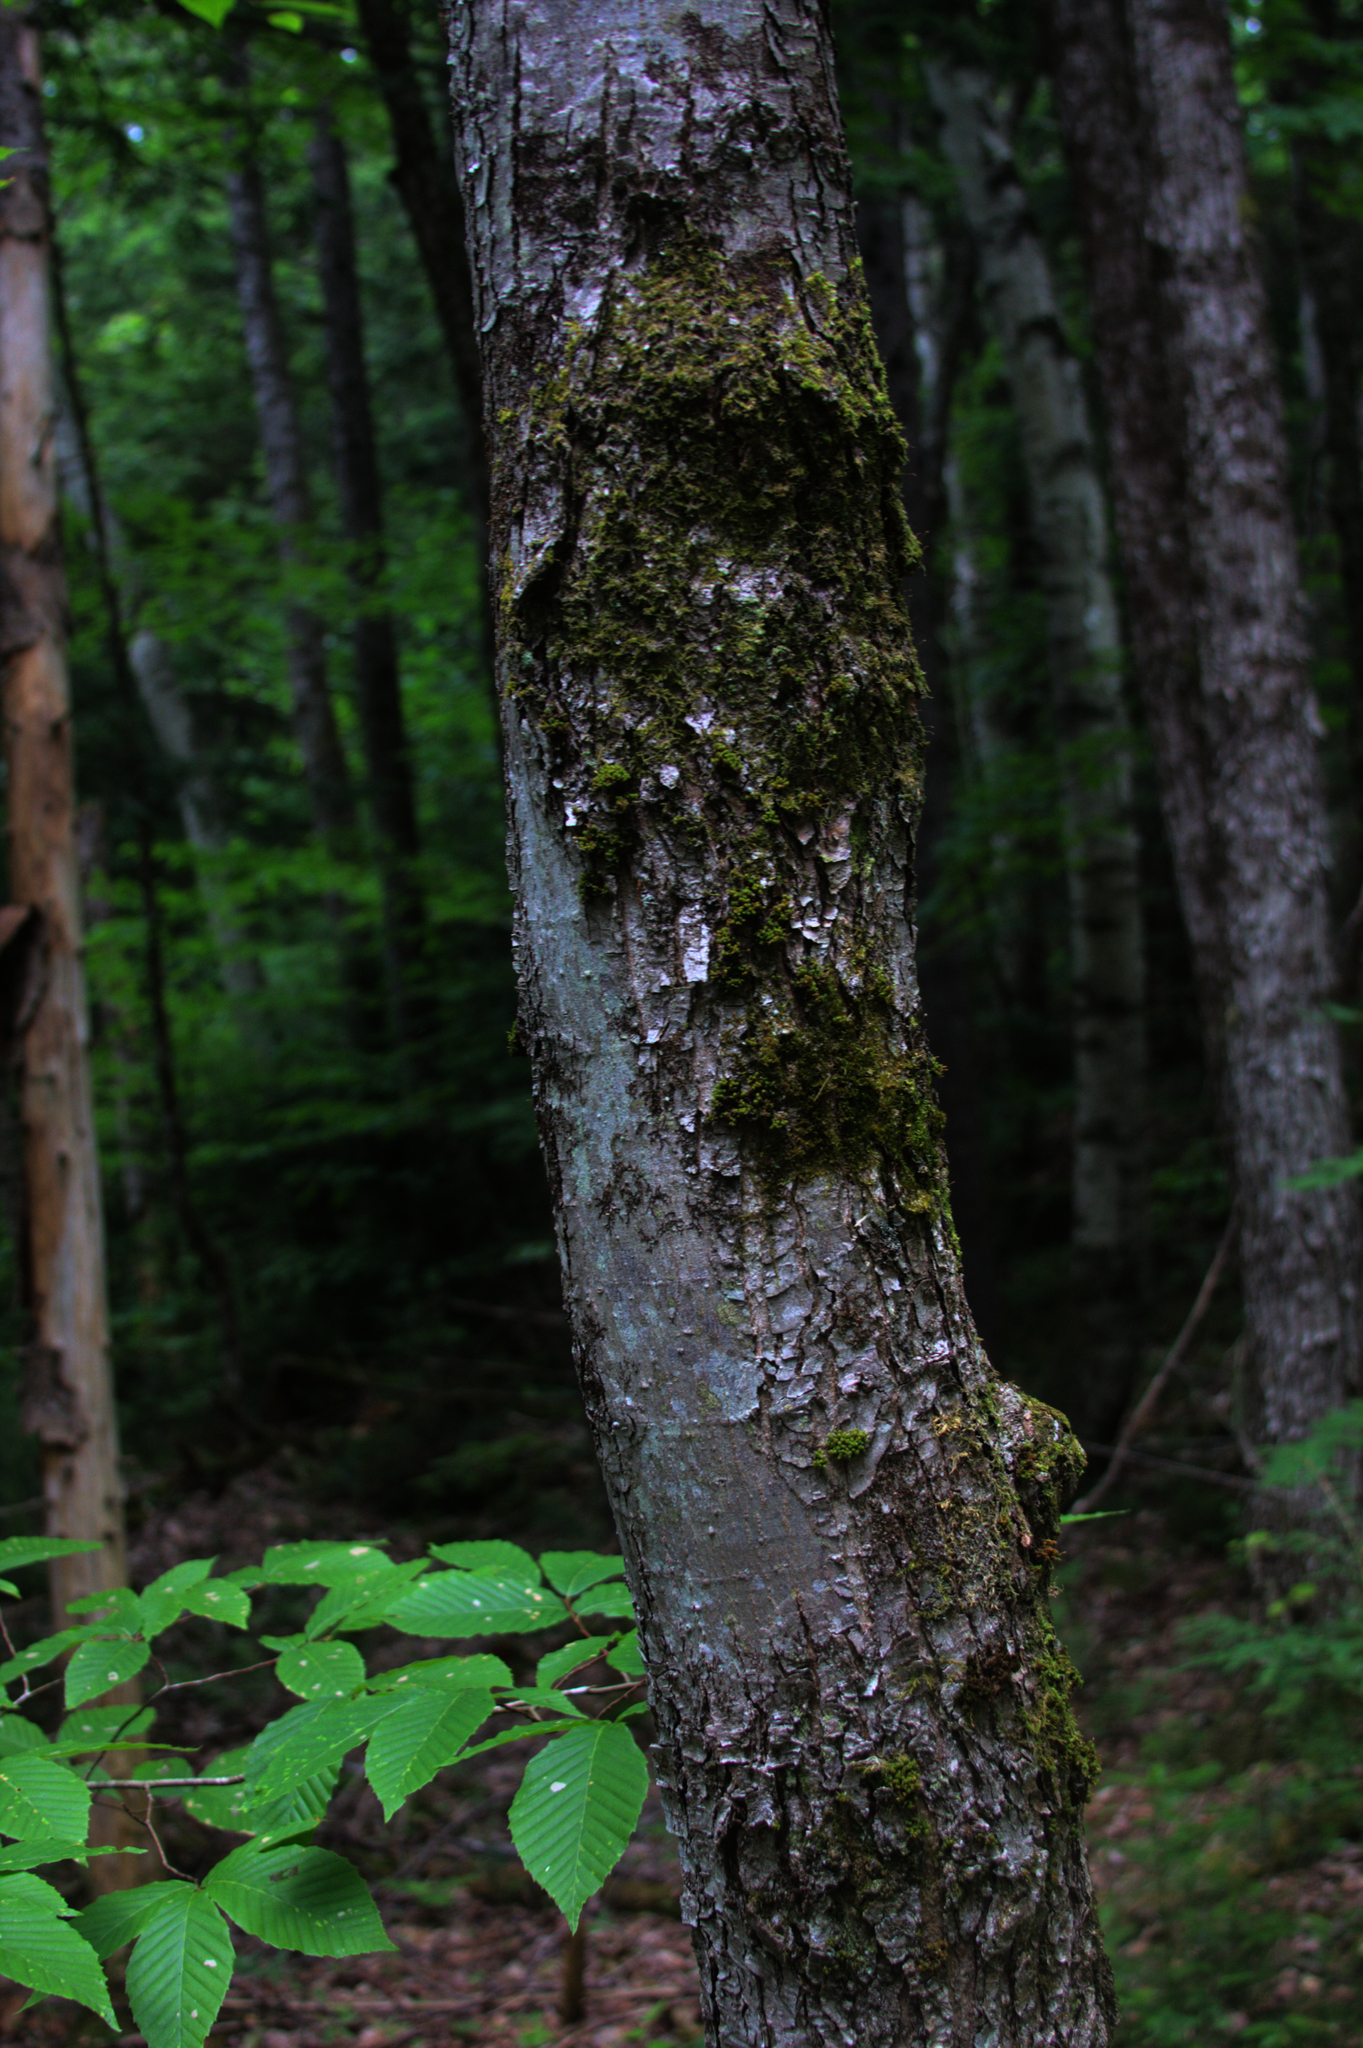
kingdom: Plantae
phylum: Tracheophyta
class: Magnoliopsida
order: Sapindales
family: Sapindaceae
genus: Acer
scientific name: Acer rubrum
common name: Red maple
